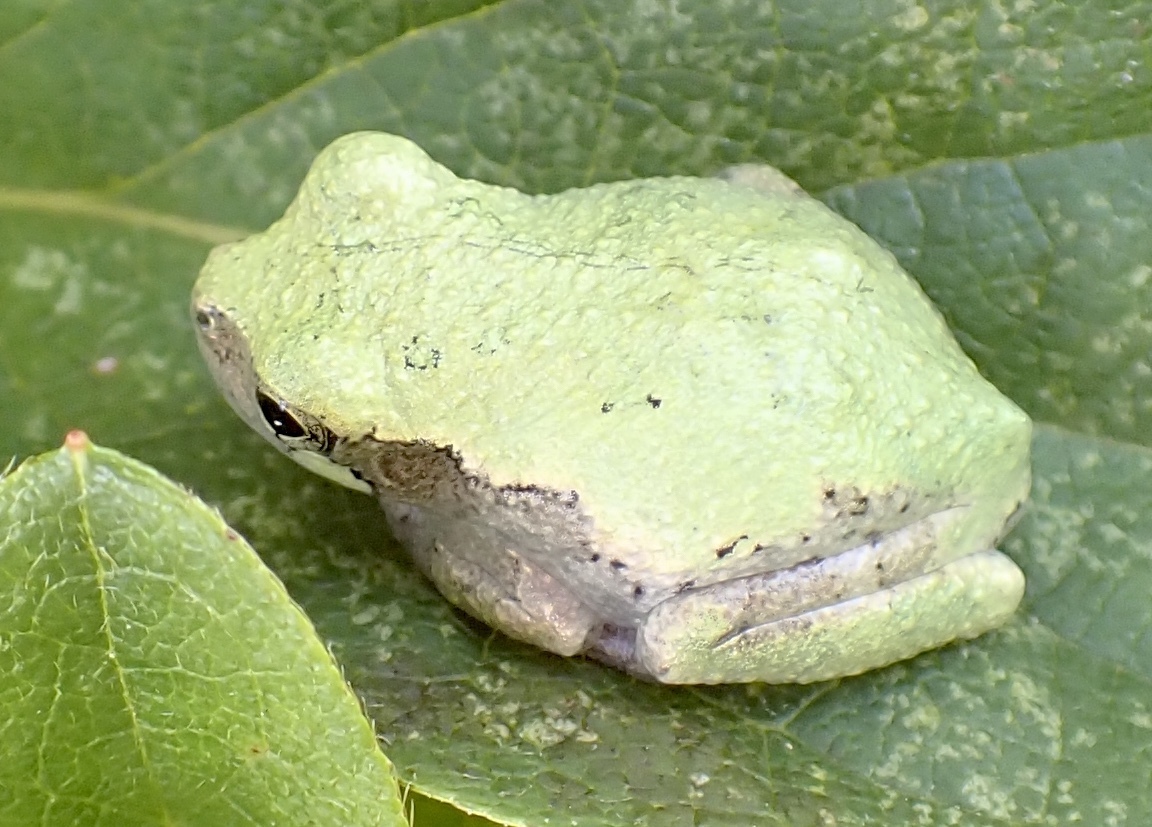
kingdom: Animalia
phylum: Chordata
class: Amphibia
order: Anura
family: Hylidae
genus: Dryophytes
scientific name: Dryophytes avivoca
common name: Bird-voiced treefrog
